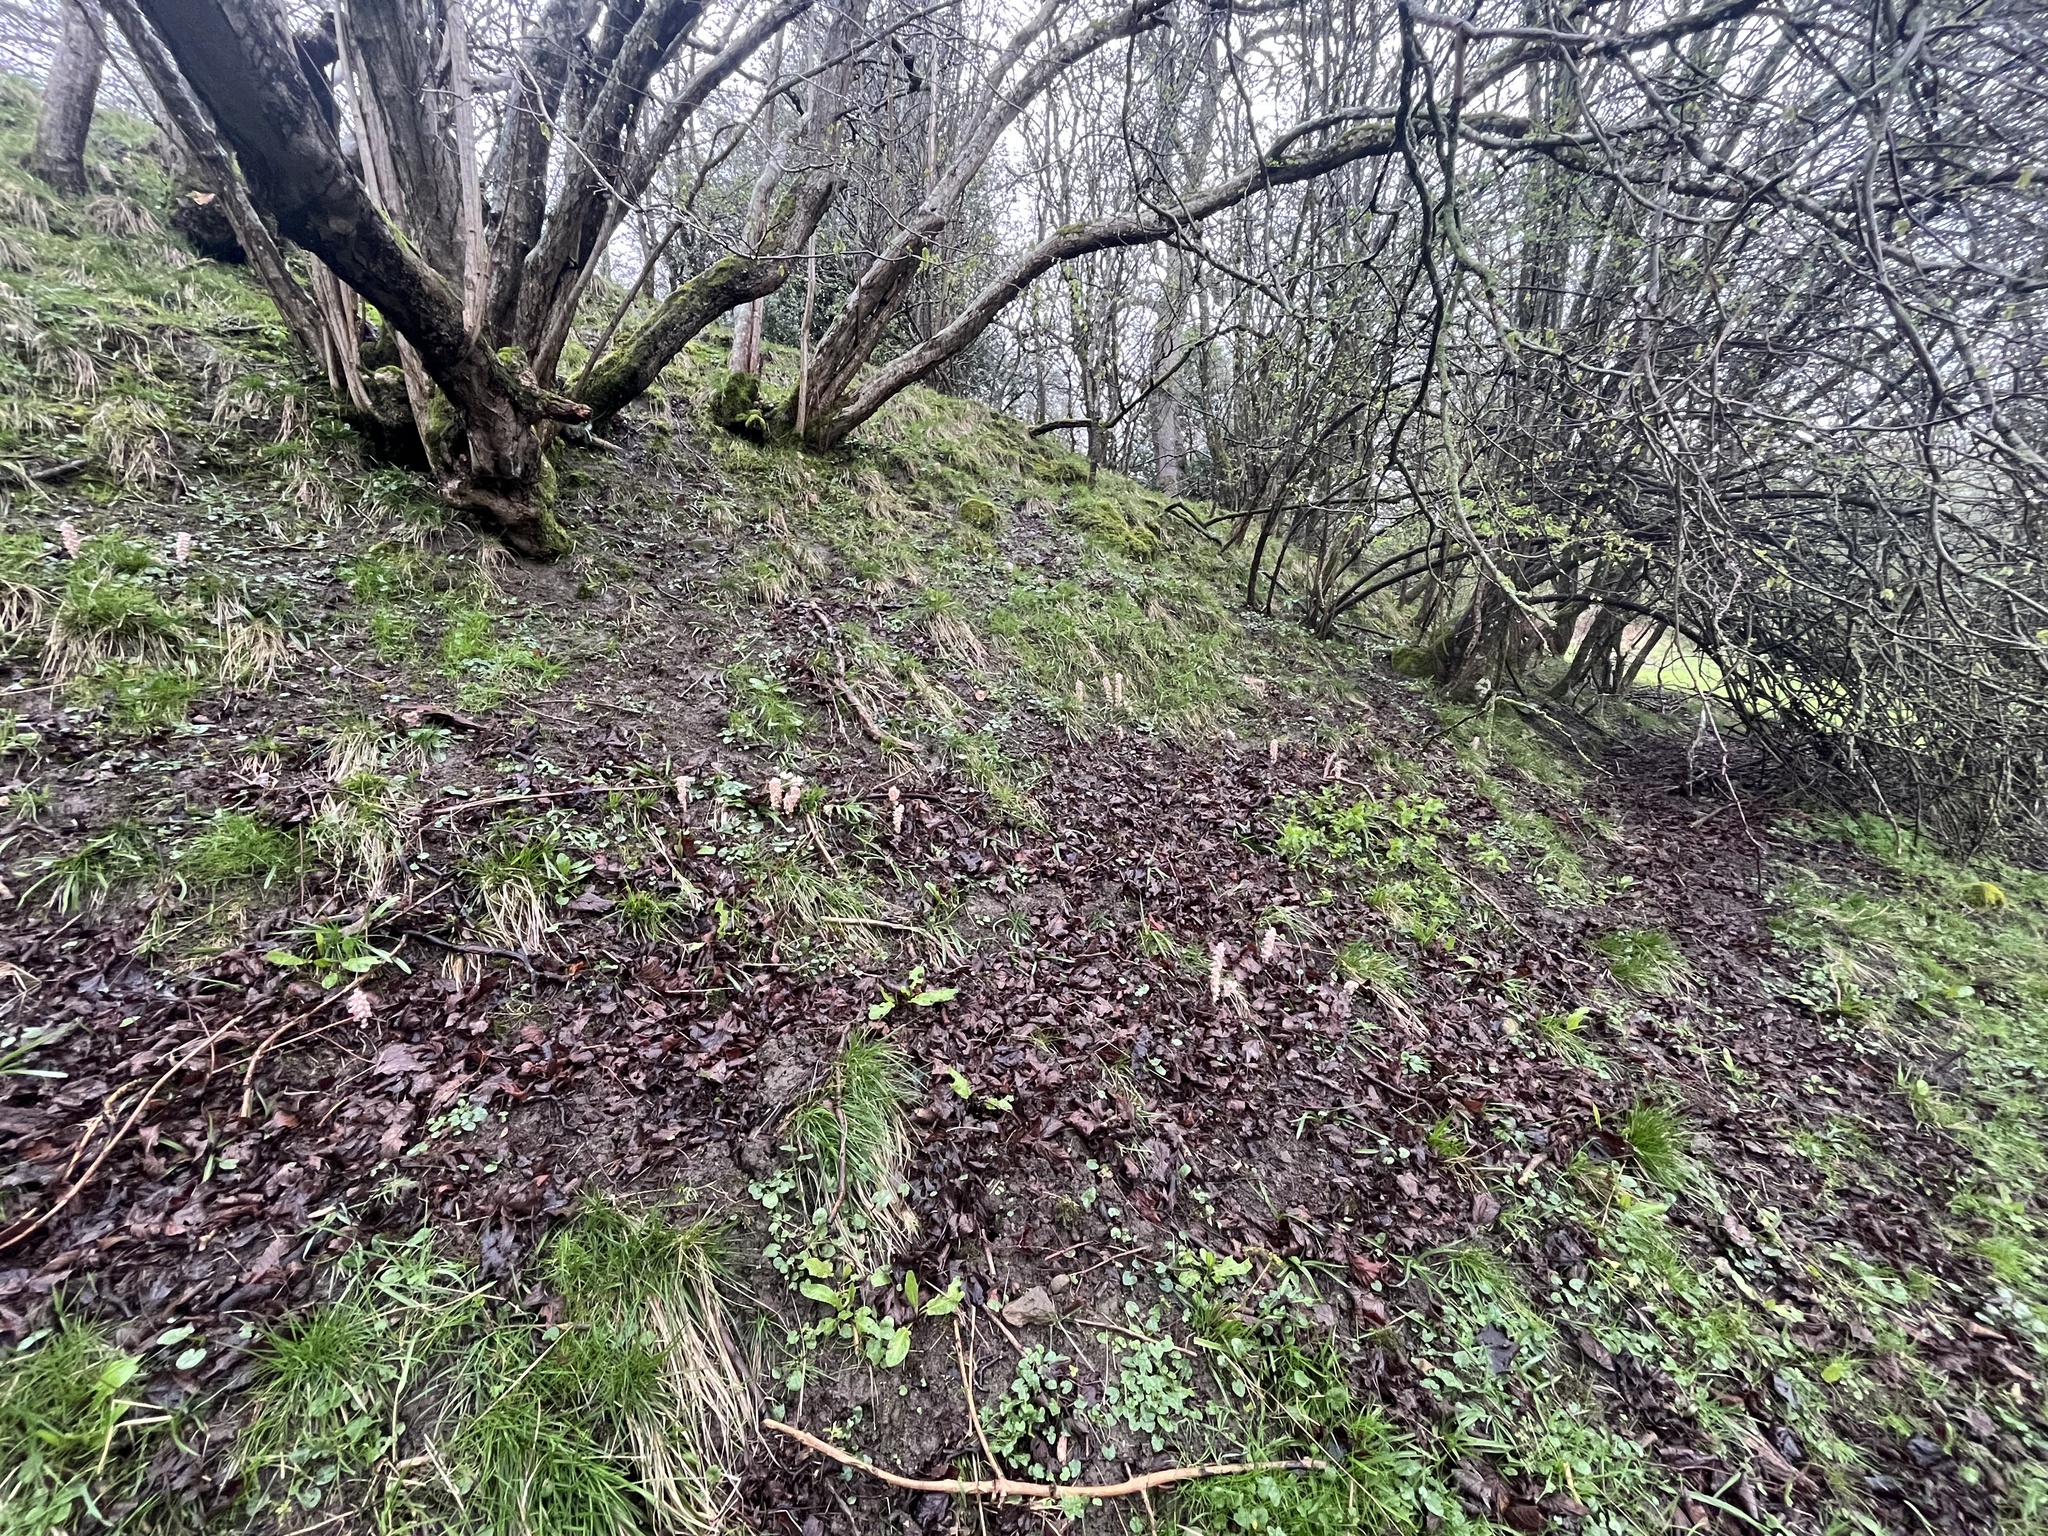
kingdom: Plantae
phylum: Tracheophyta
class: Magnoliopsida
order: Lamiales
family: Orobanchaceae
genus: Lathraea
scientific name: Lathraea squamaria
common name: Toothwort
